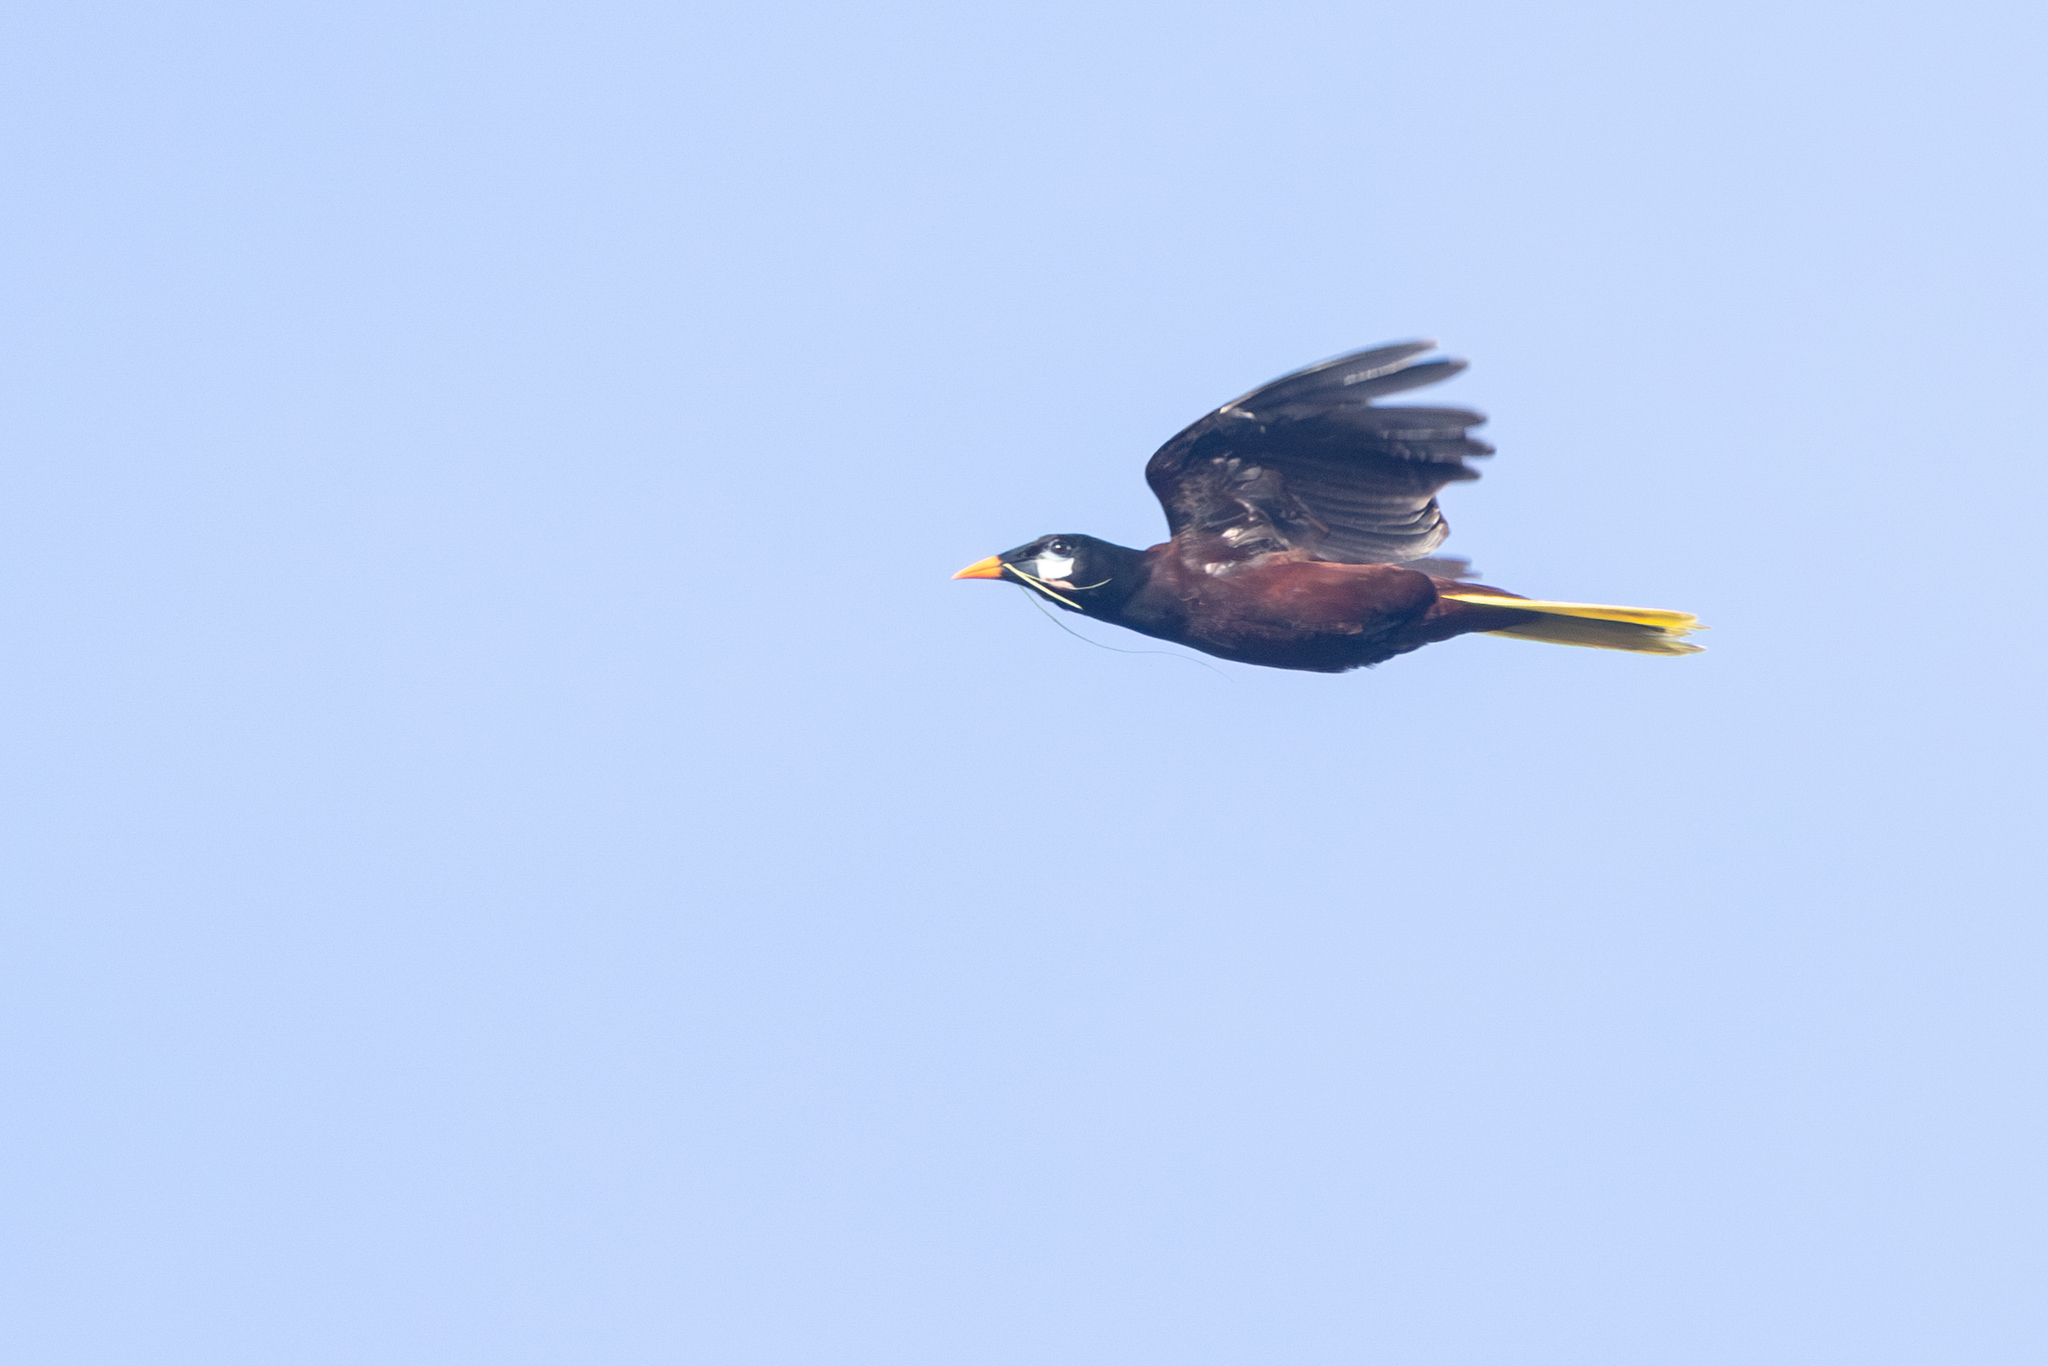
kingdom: Animalia
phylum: Chordata
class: Aves
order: Passeriformes
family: Icteridae
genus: Psarocolius
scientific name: Psarocolius montezuma
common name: Montezuma oropendola
